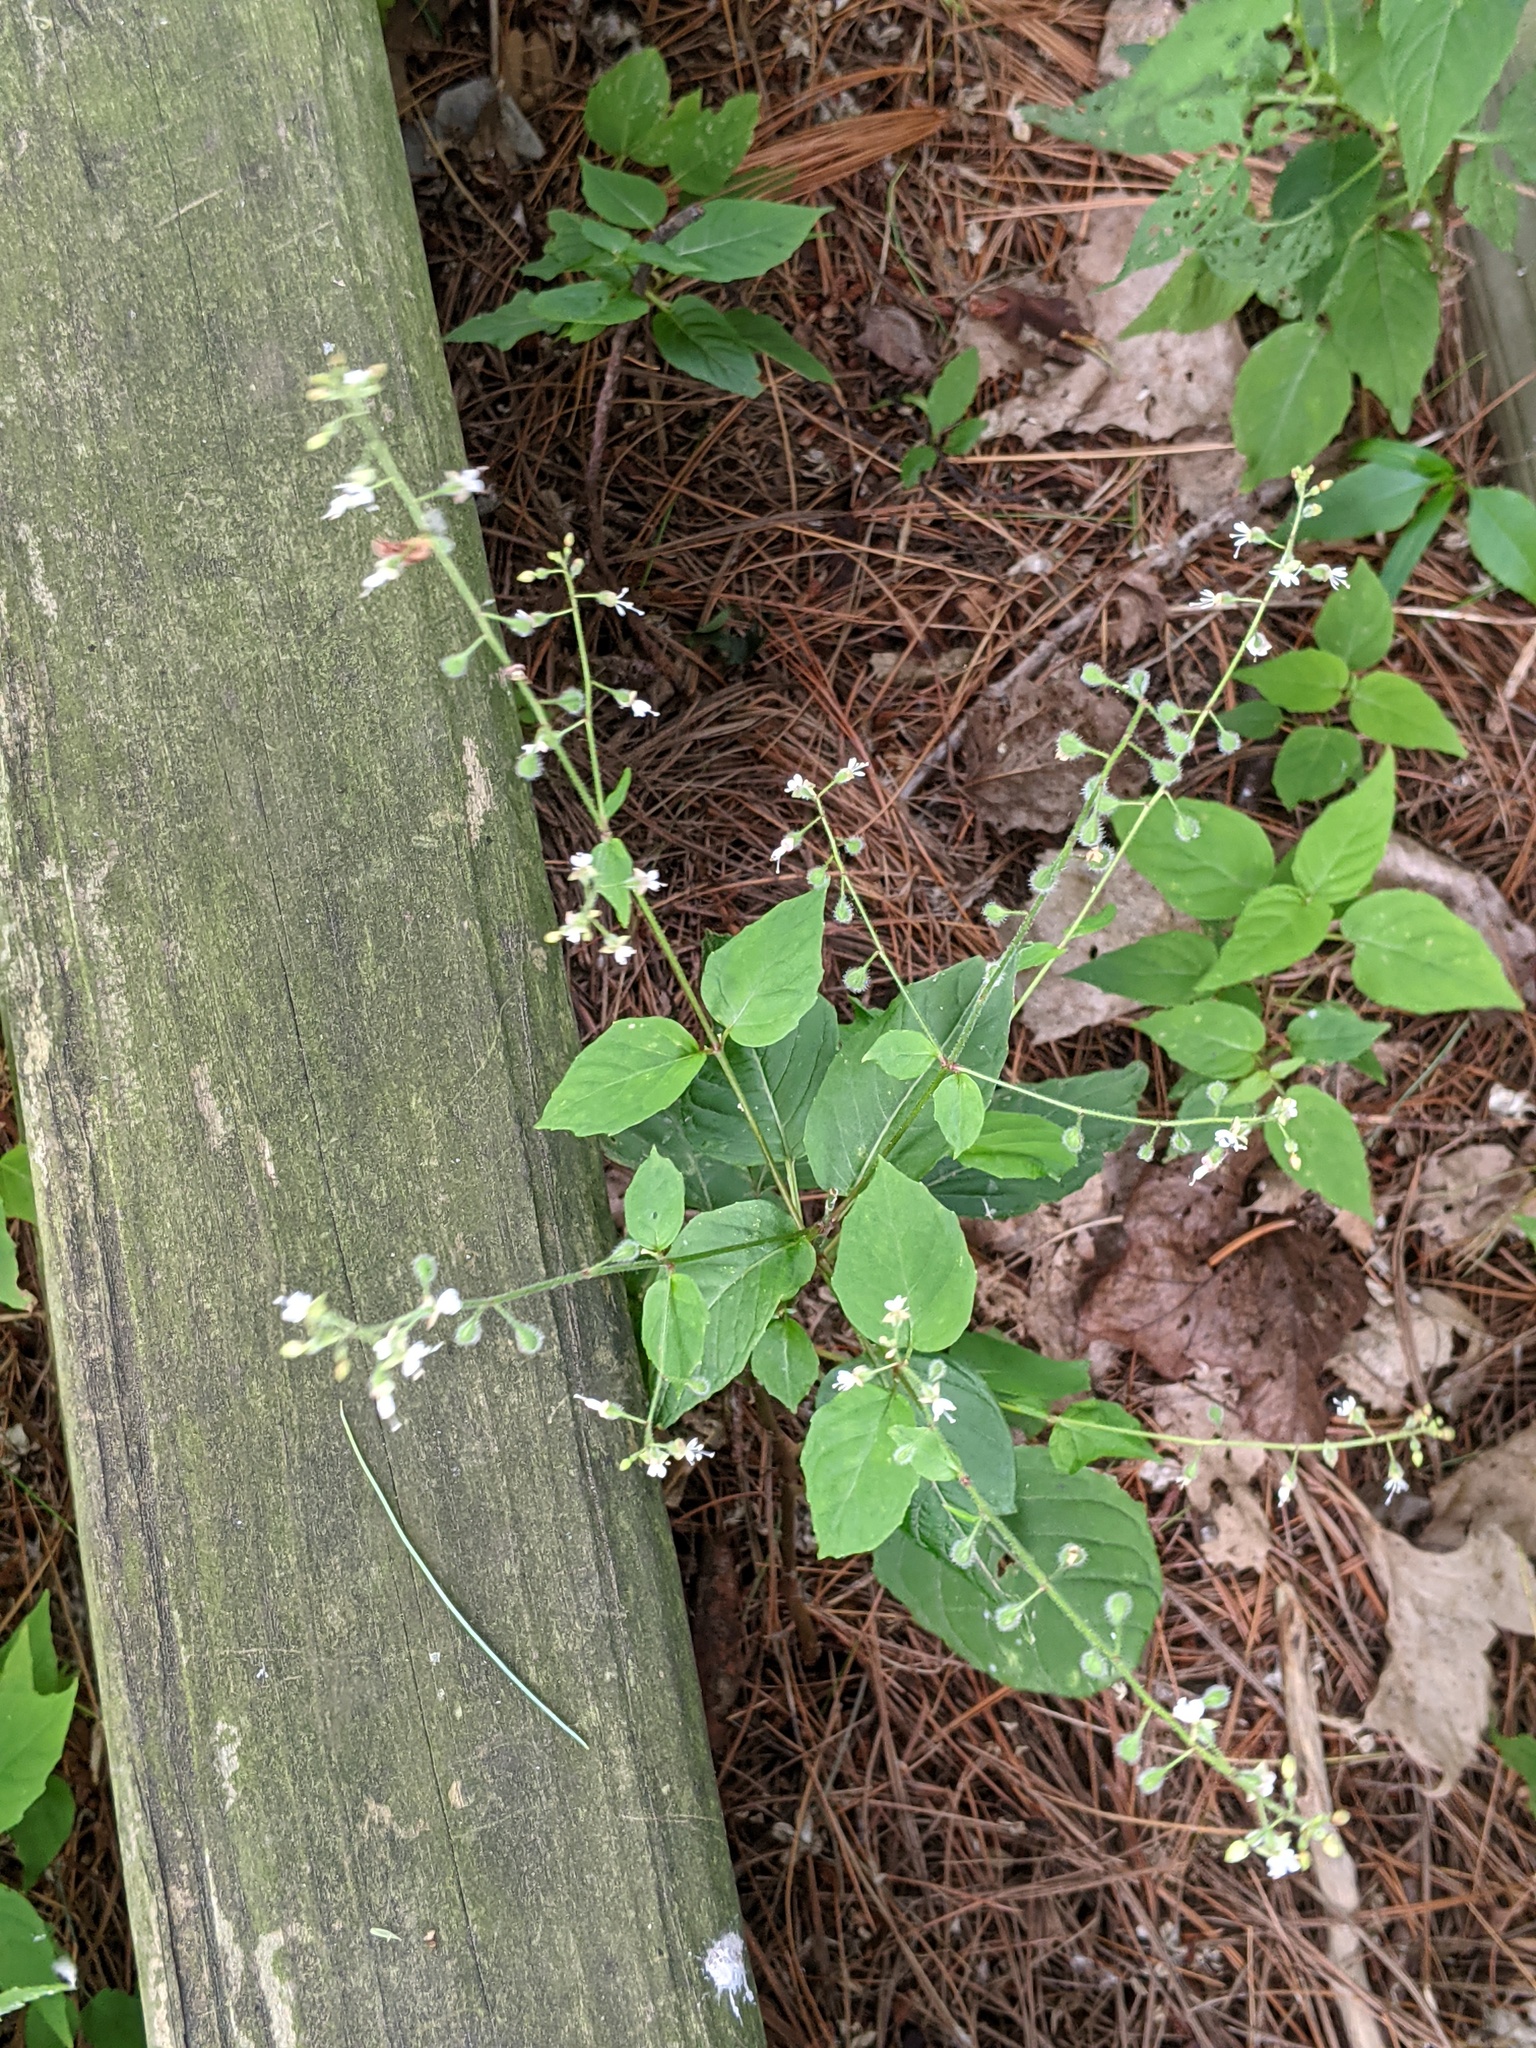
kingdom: Plantae
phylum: Tracheophyta
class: Magnoliopsida
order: Myrtales
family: Onagraceae
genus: Circaea
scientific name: Circaea canadensis
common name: Broad-leaved enchanter's nightshade
